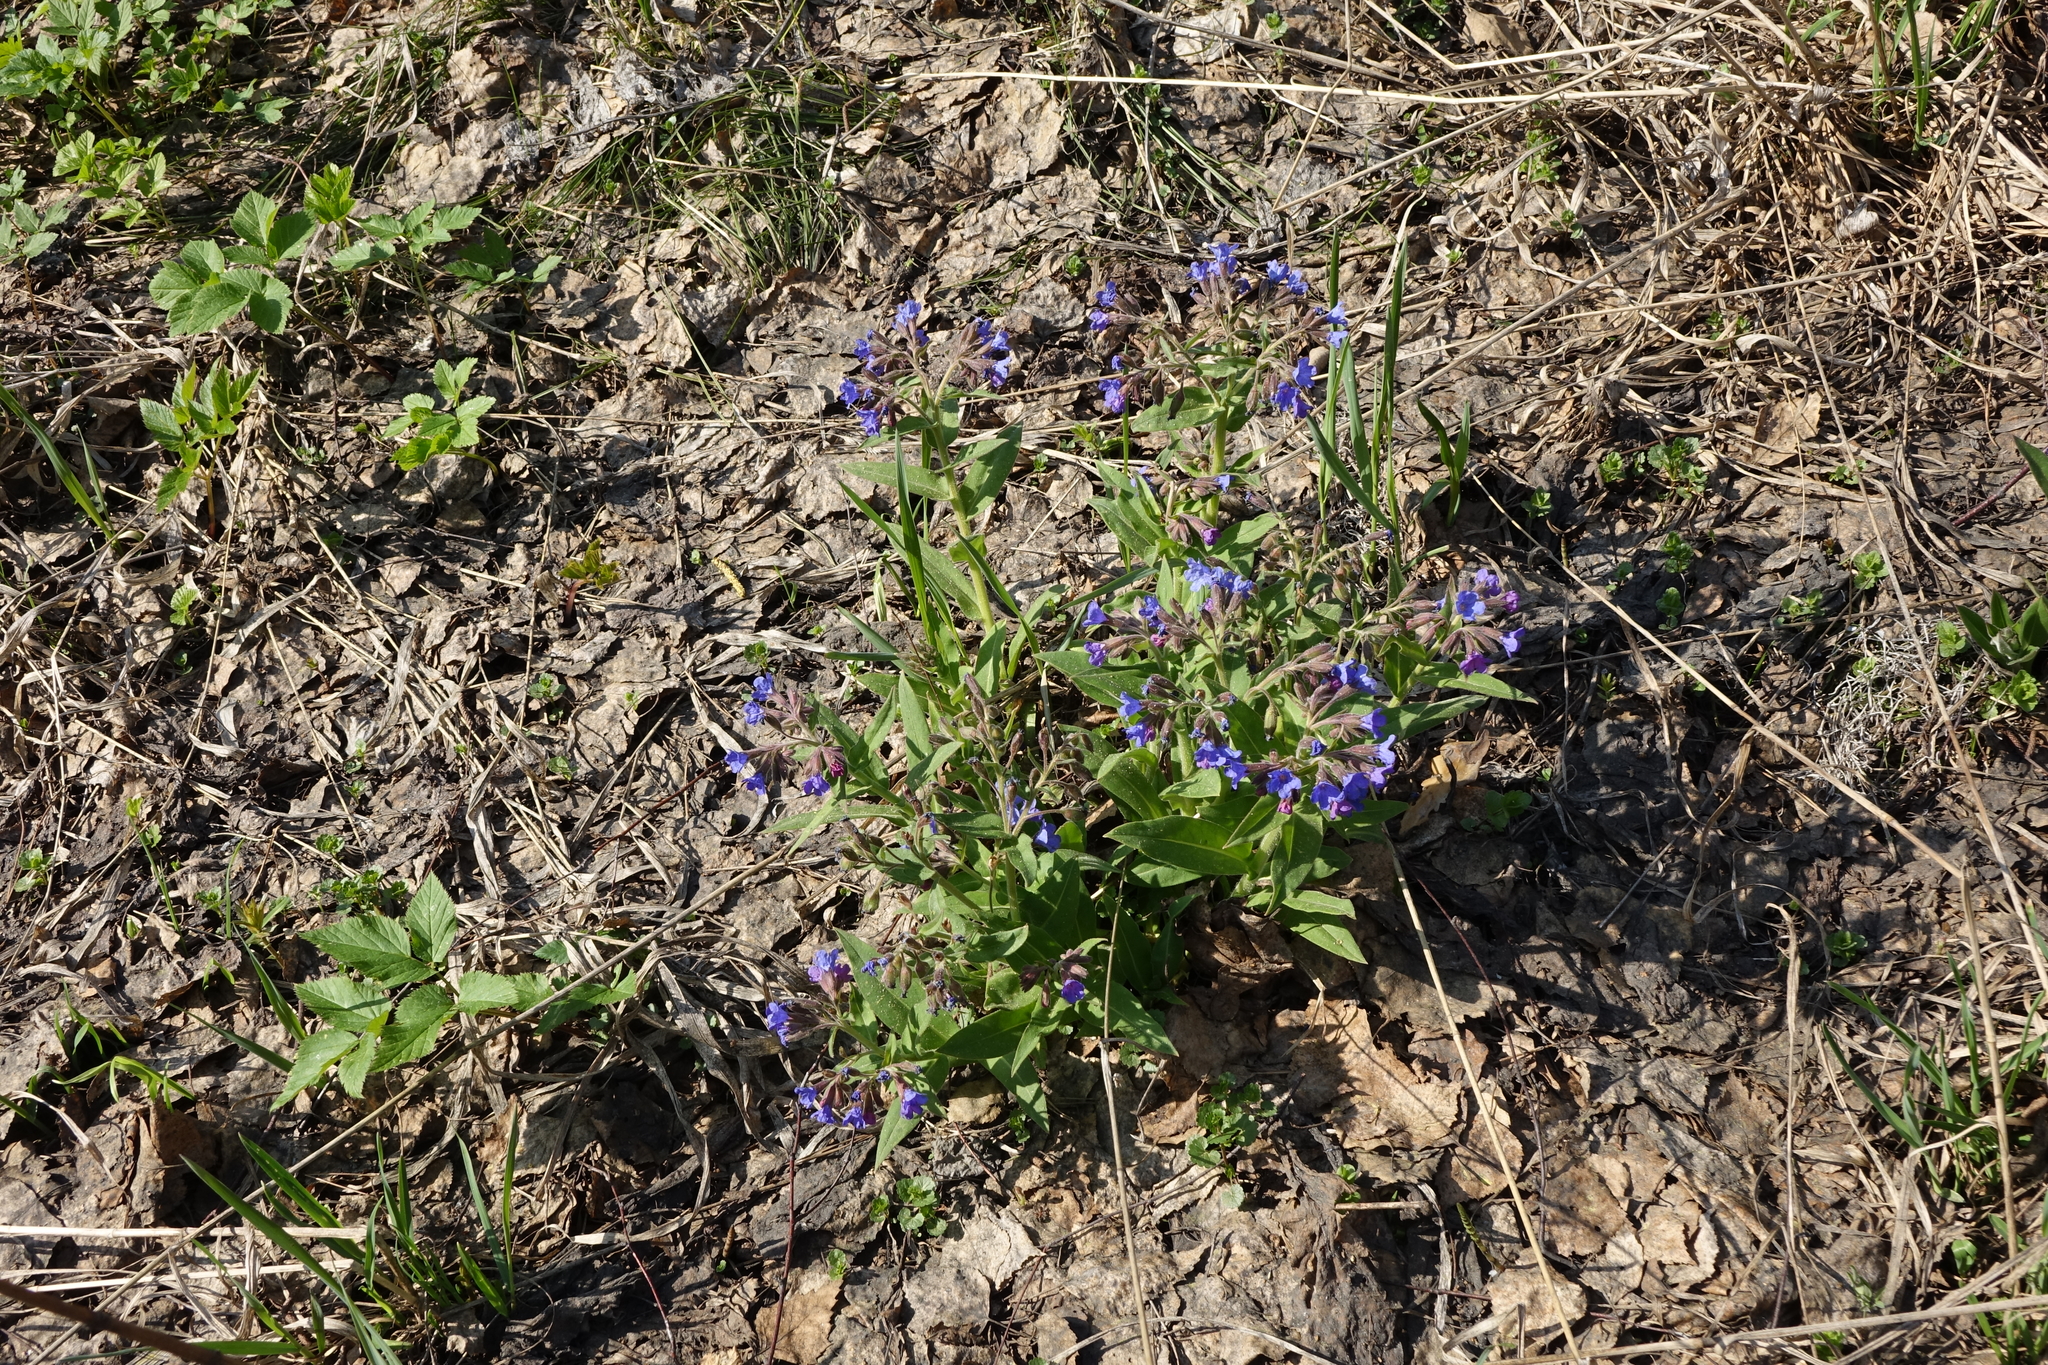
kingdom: Plantae
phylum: Tracheophyta
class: Magnoliopsida
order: Boraginales
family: Boraginaceae
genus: Pulmonaria
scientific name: Pulmonaria mollis
